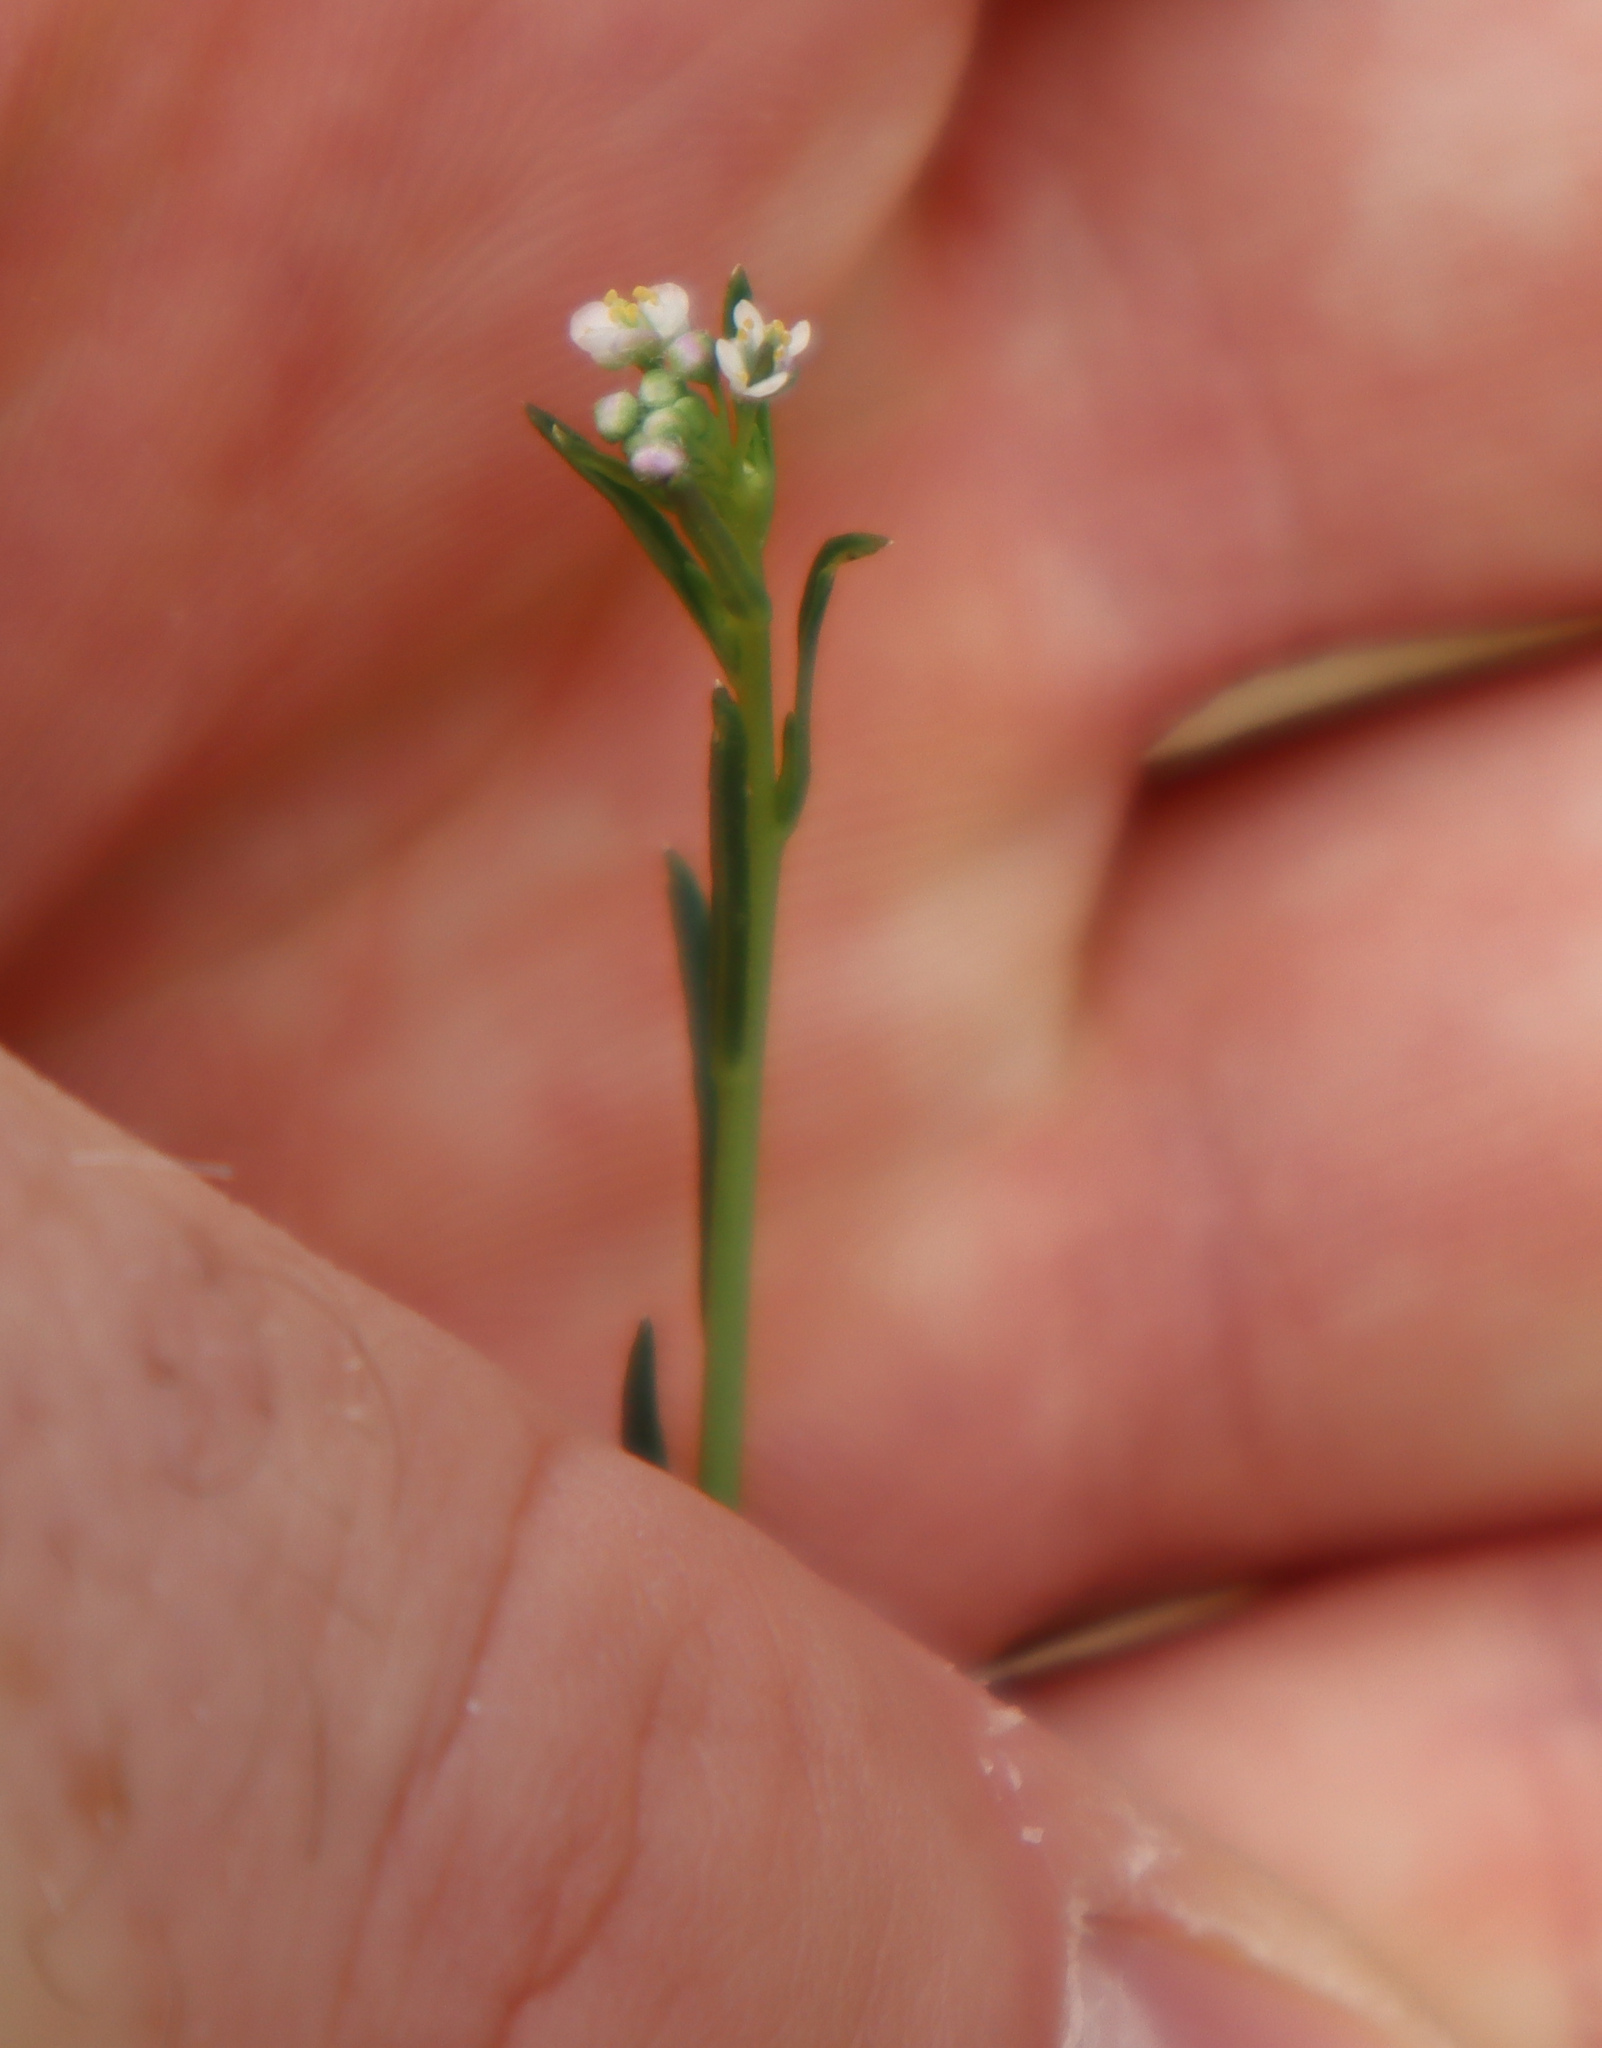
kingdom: Plantae
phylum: Tracheophyta
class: Magnoliopsida
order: Brassicales
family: Brassicaceae
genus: Lepidium
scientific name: Lepidium graminifolium
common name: Tall pepperwort
